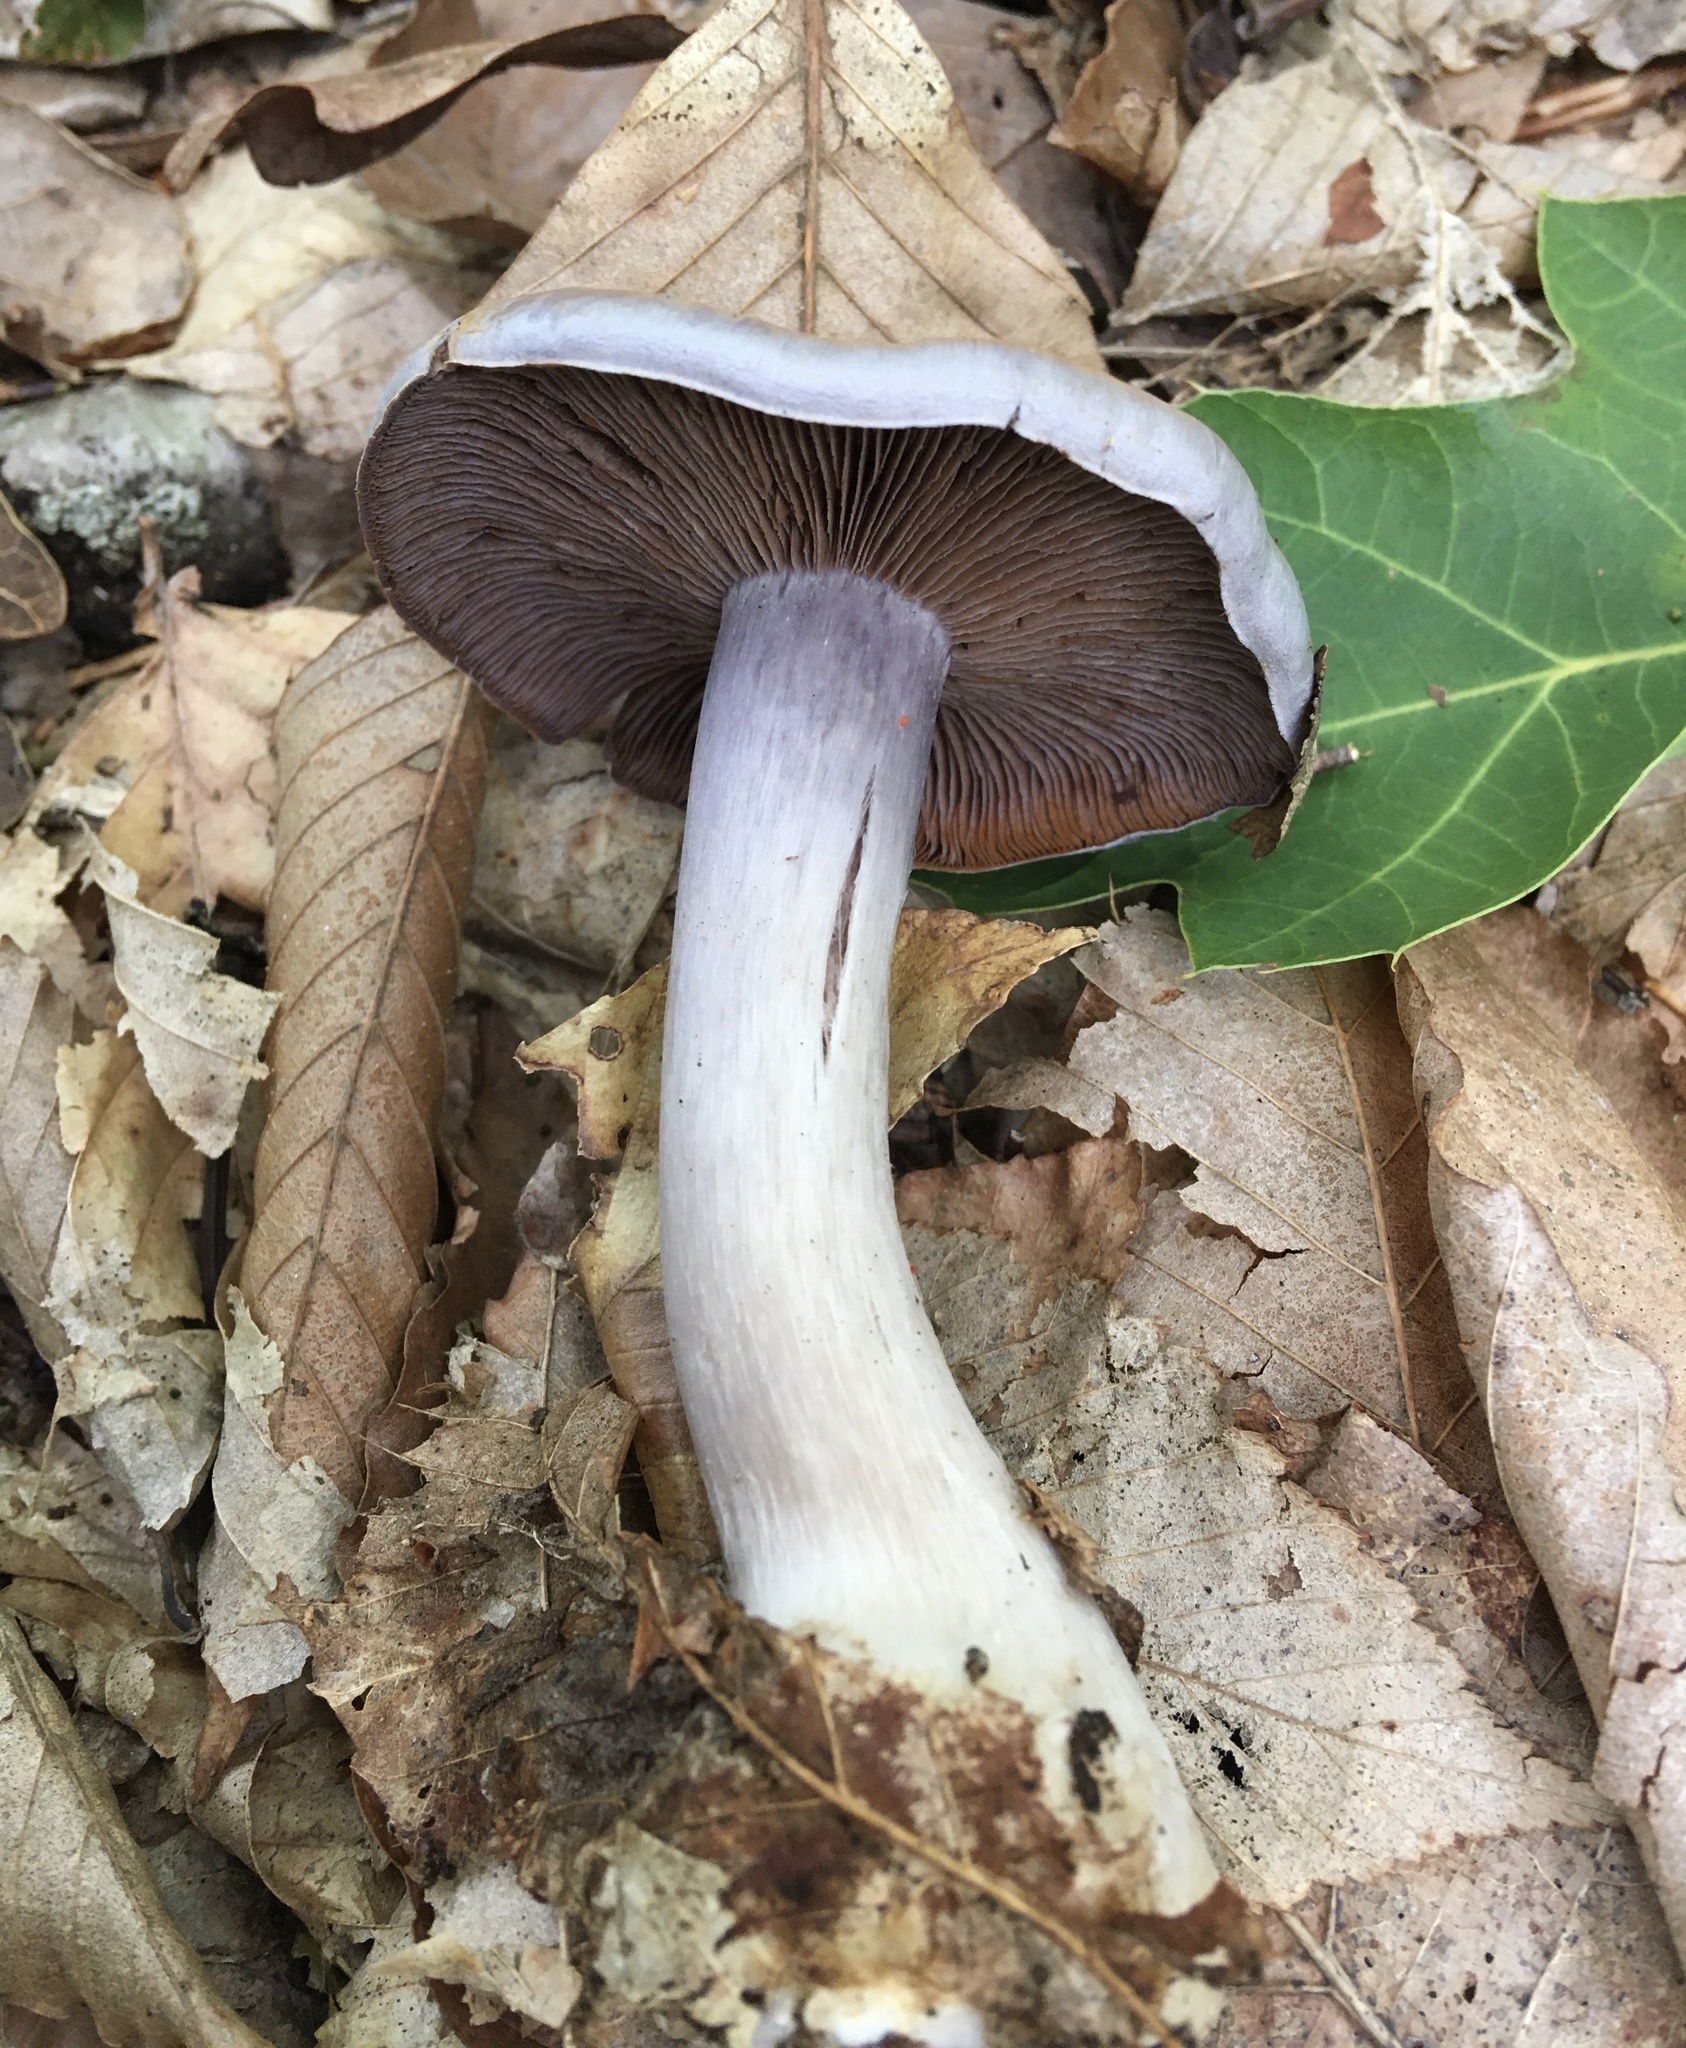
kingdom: Fungi
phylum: Basidiomycota
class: Agaricomycetes
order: Agaricales
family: Cortinariaceae
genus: Cortinarius
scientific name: Cortinarius iodes
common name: Viscid violet cort
